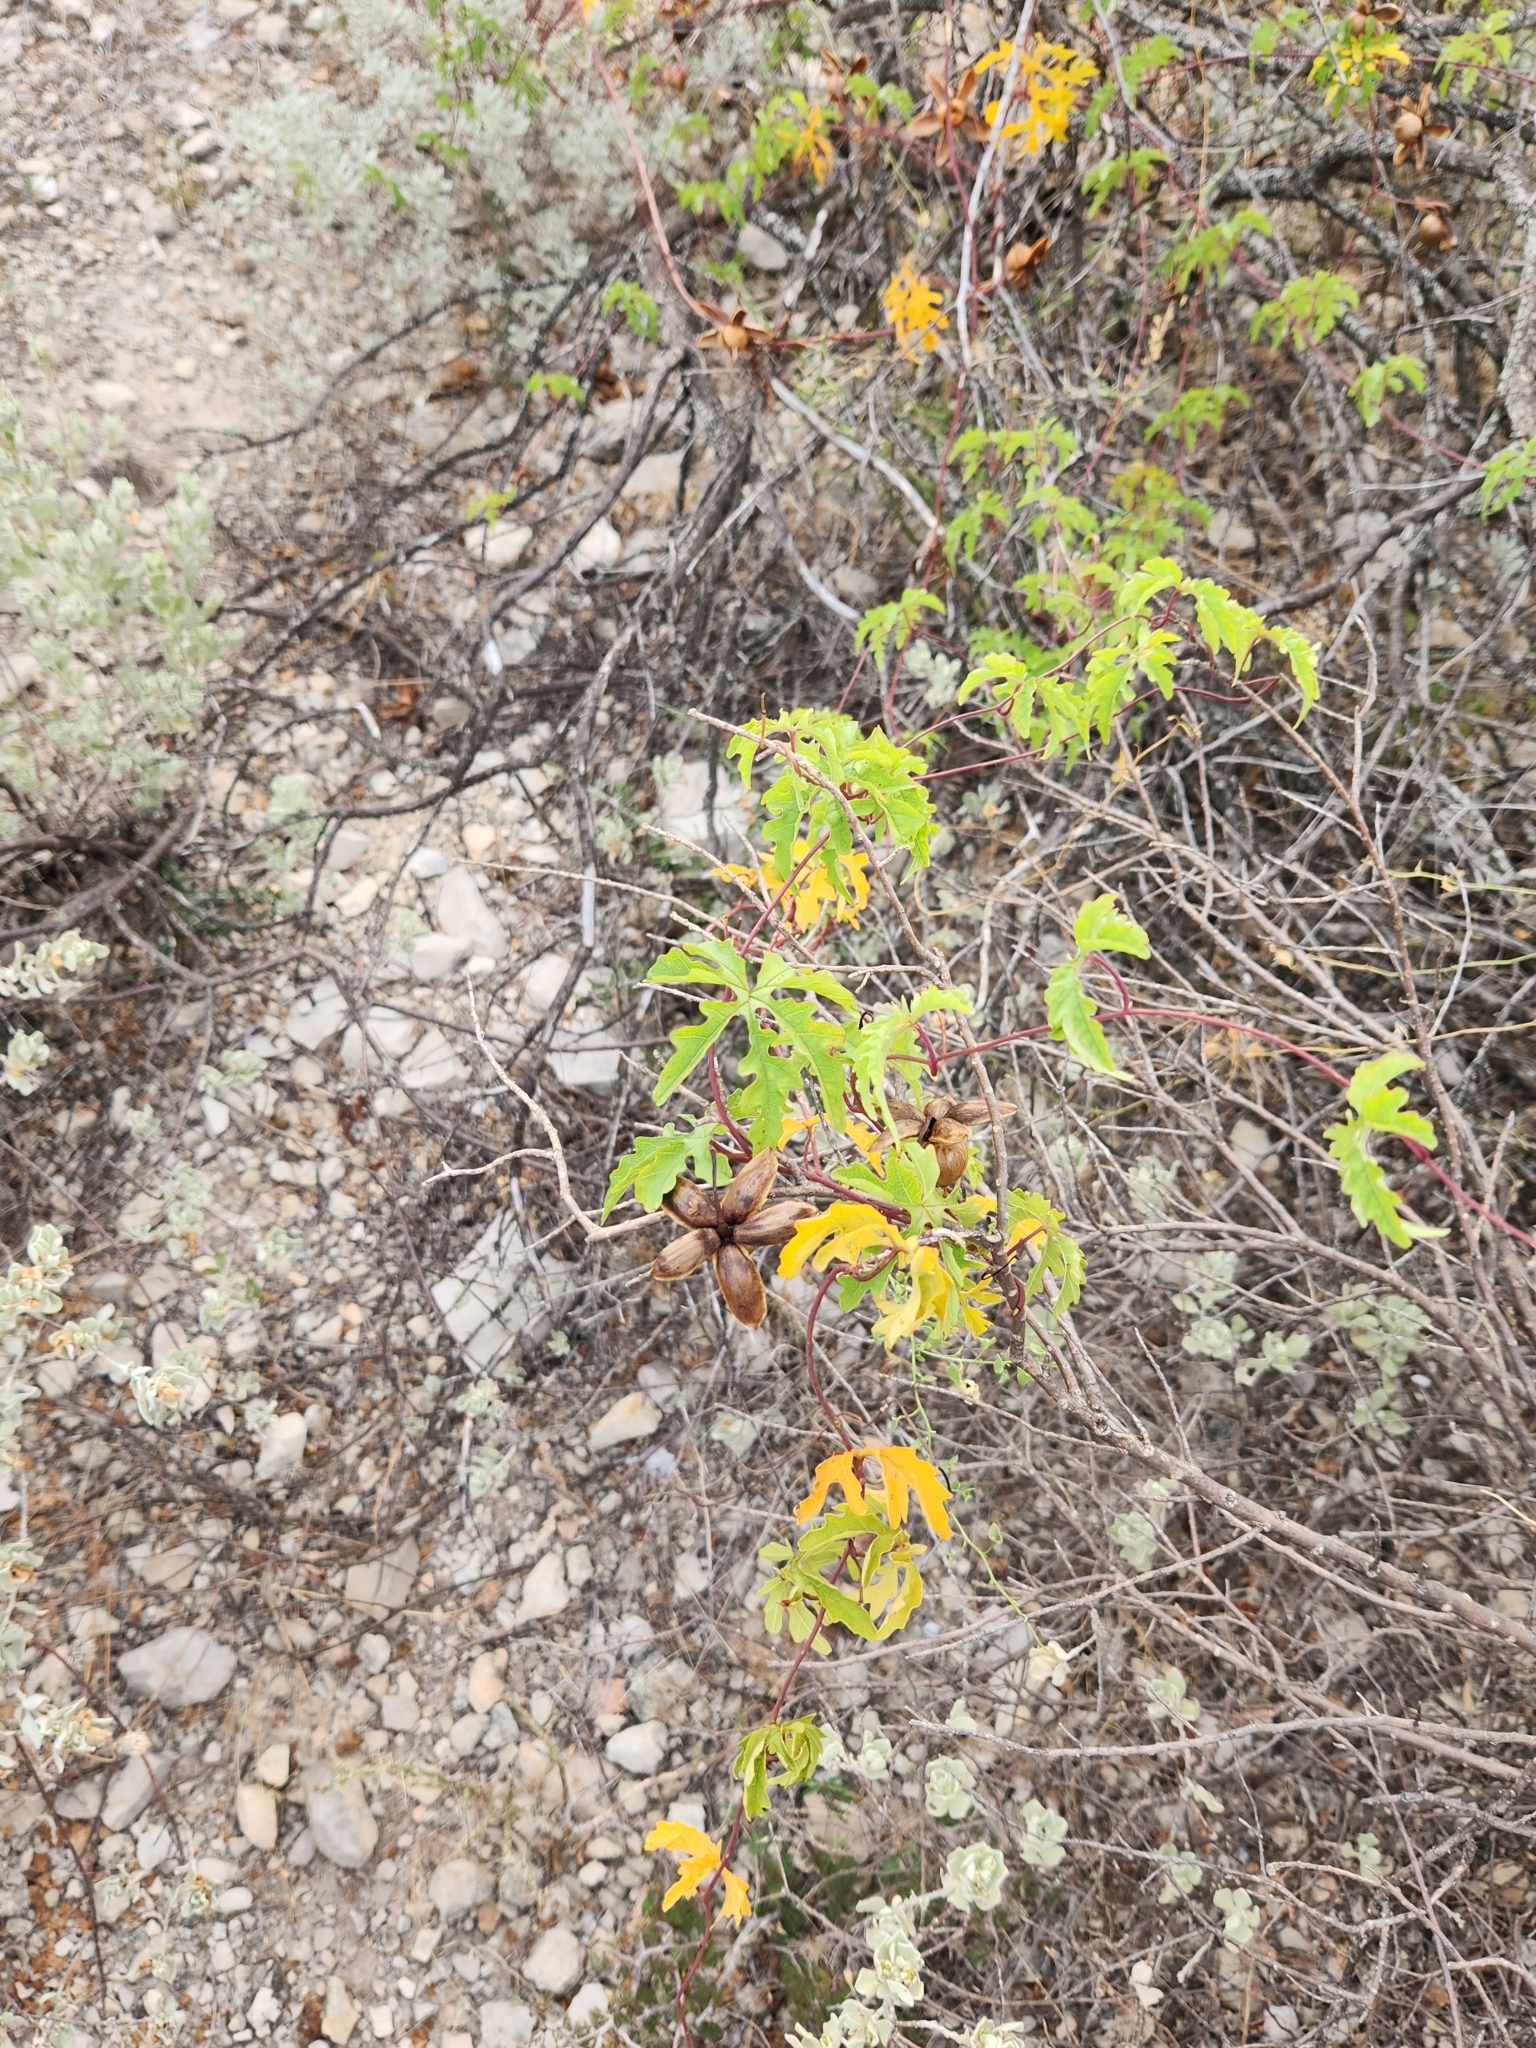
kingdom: Plantae
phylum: Tracheophyta
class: Magnoliopsida
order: Solanales
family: Convolvulaceae
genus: Distimake
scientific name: Distimake dissectus
